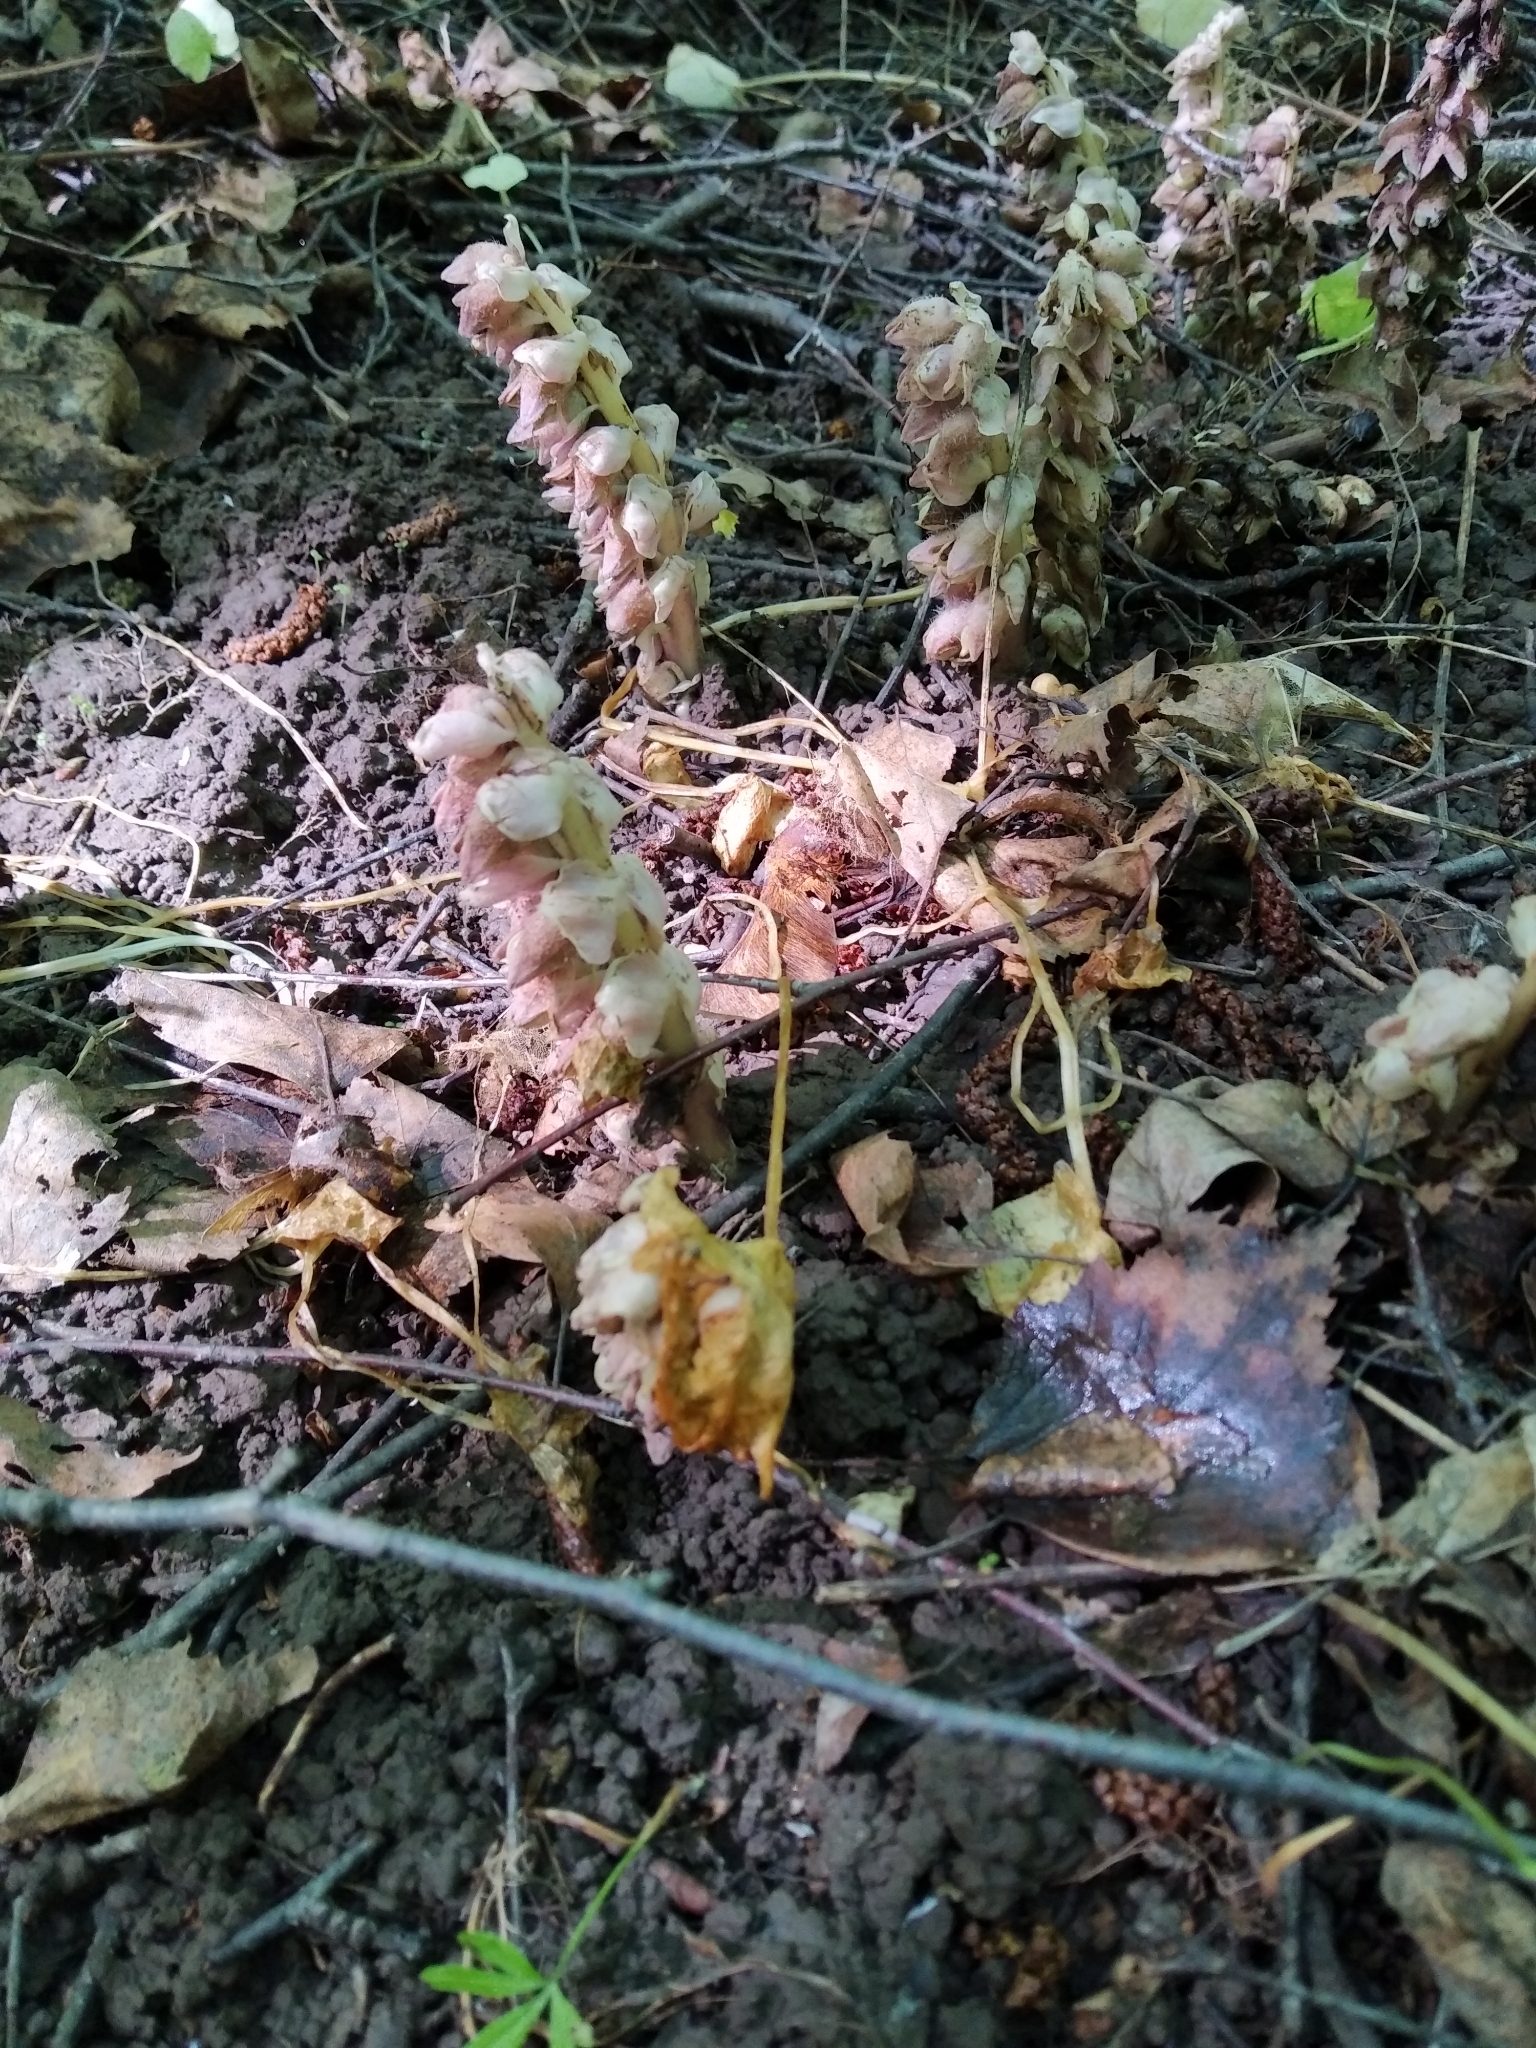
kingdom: Plantae
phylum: Tracheophyta
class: Magnoliopsida
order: Lamiales
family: Orobanchaceae
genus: Lathraea
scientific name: Lathraea squamaria
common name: Toothwort
